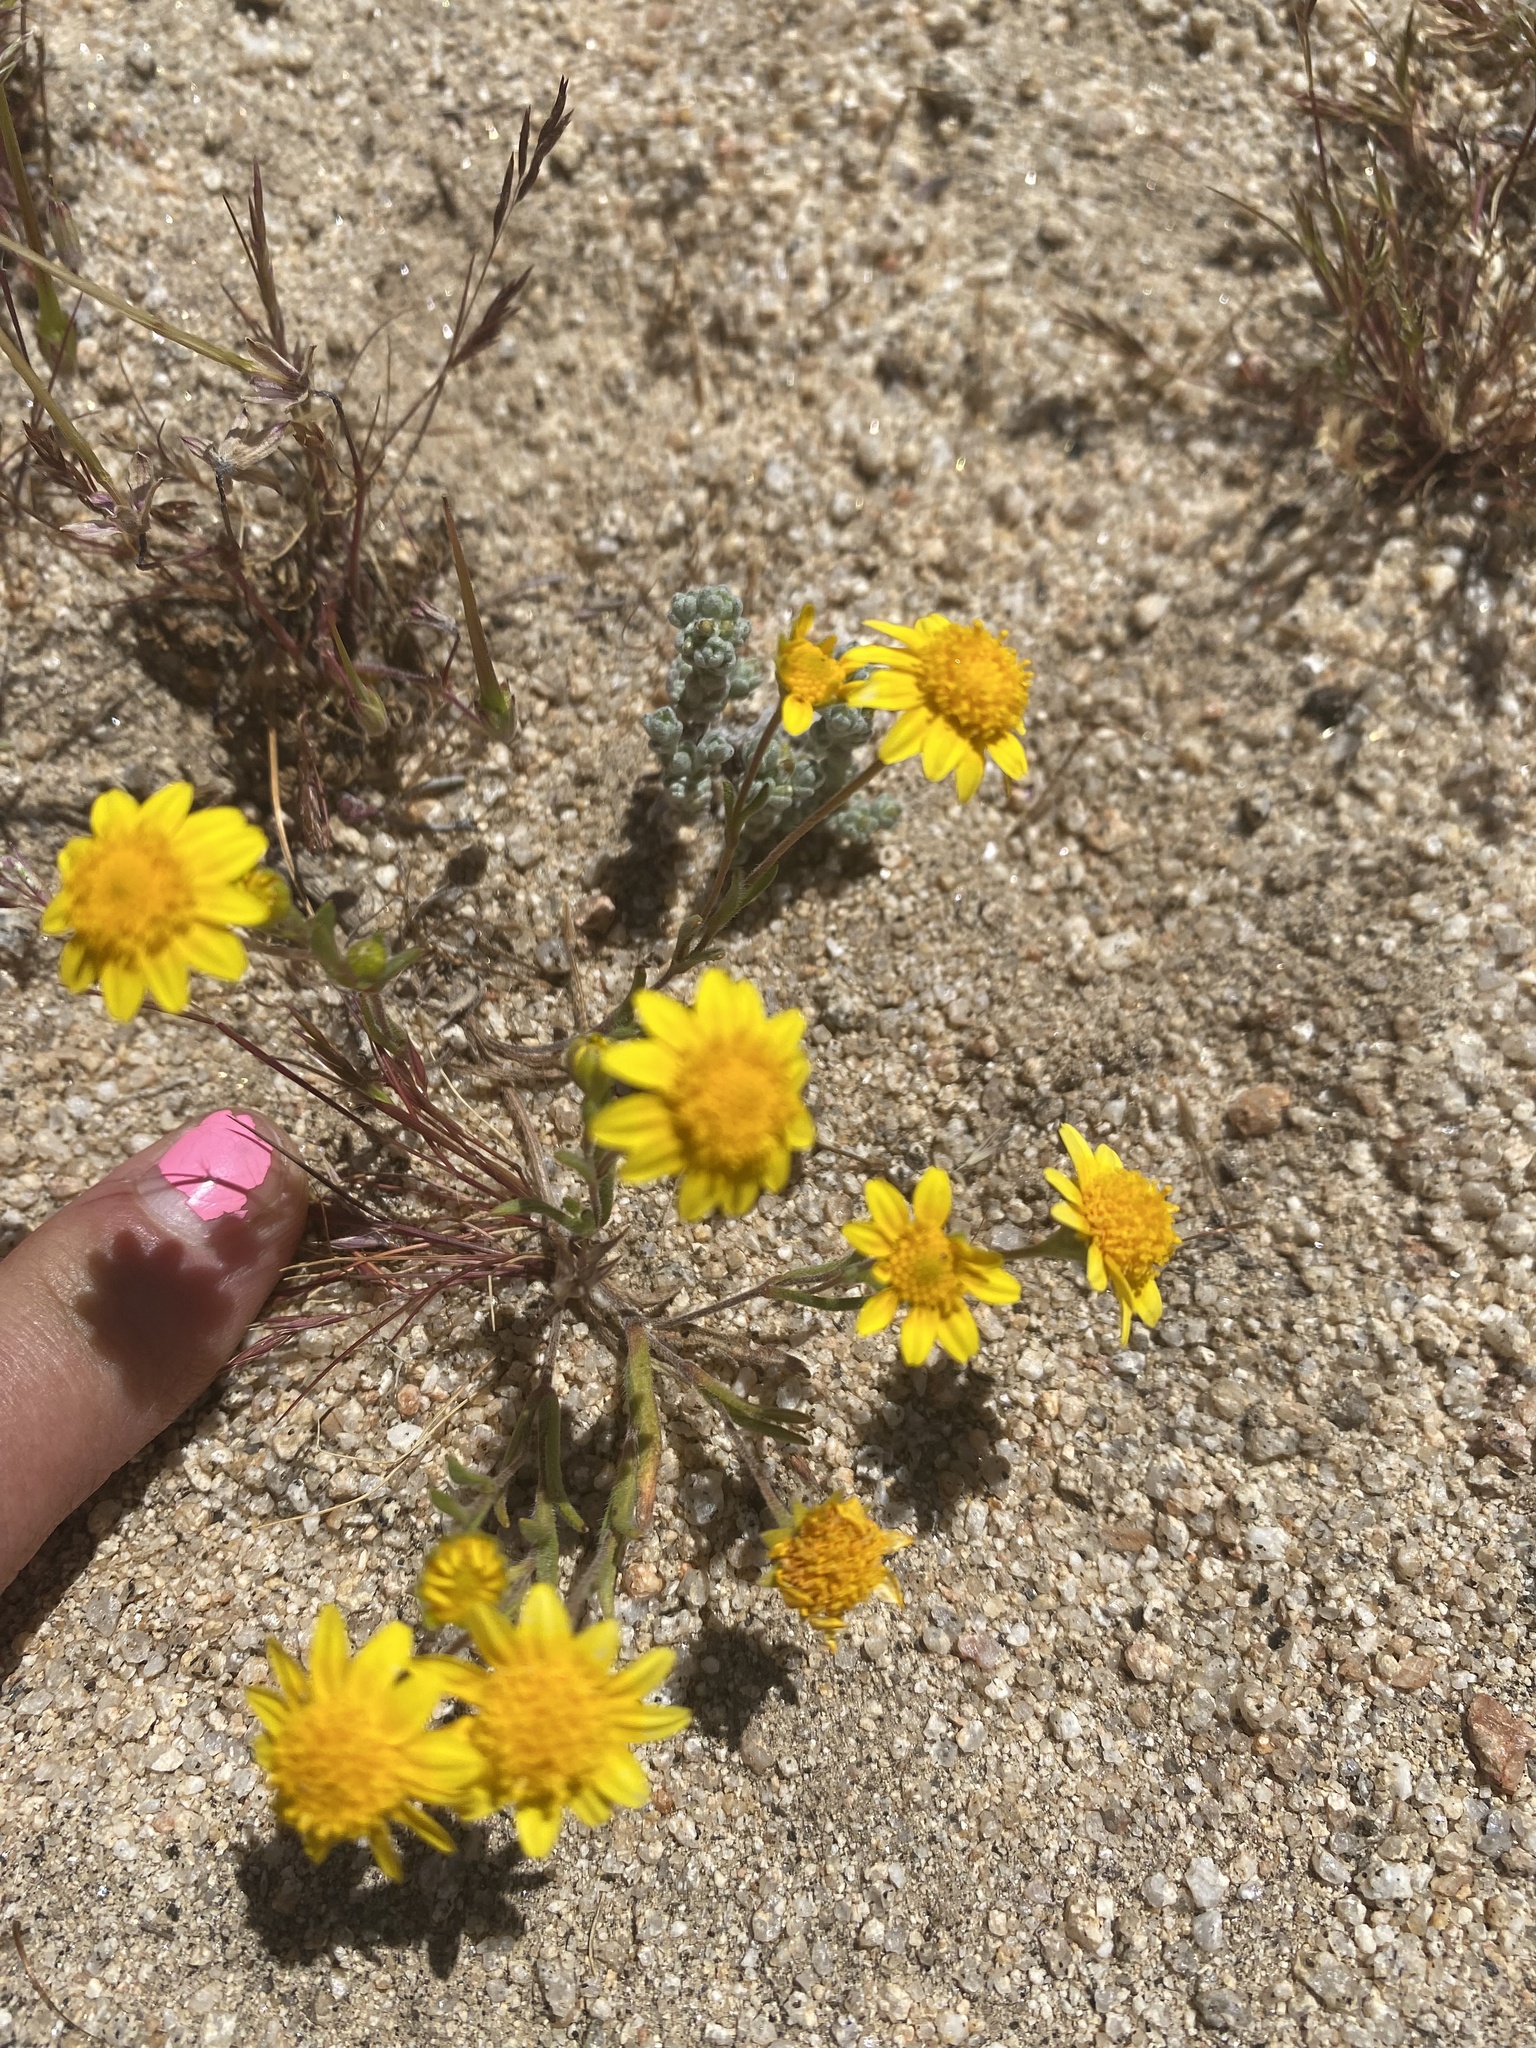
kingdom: Plantae
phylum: Tracheophyta
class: Magnoliopsida
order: Asterales
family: Asteraceae
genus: Lasthenia
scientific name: Lasthenia gracilis
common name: Common goldfields
